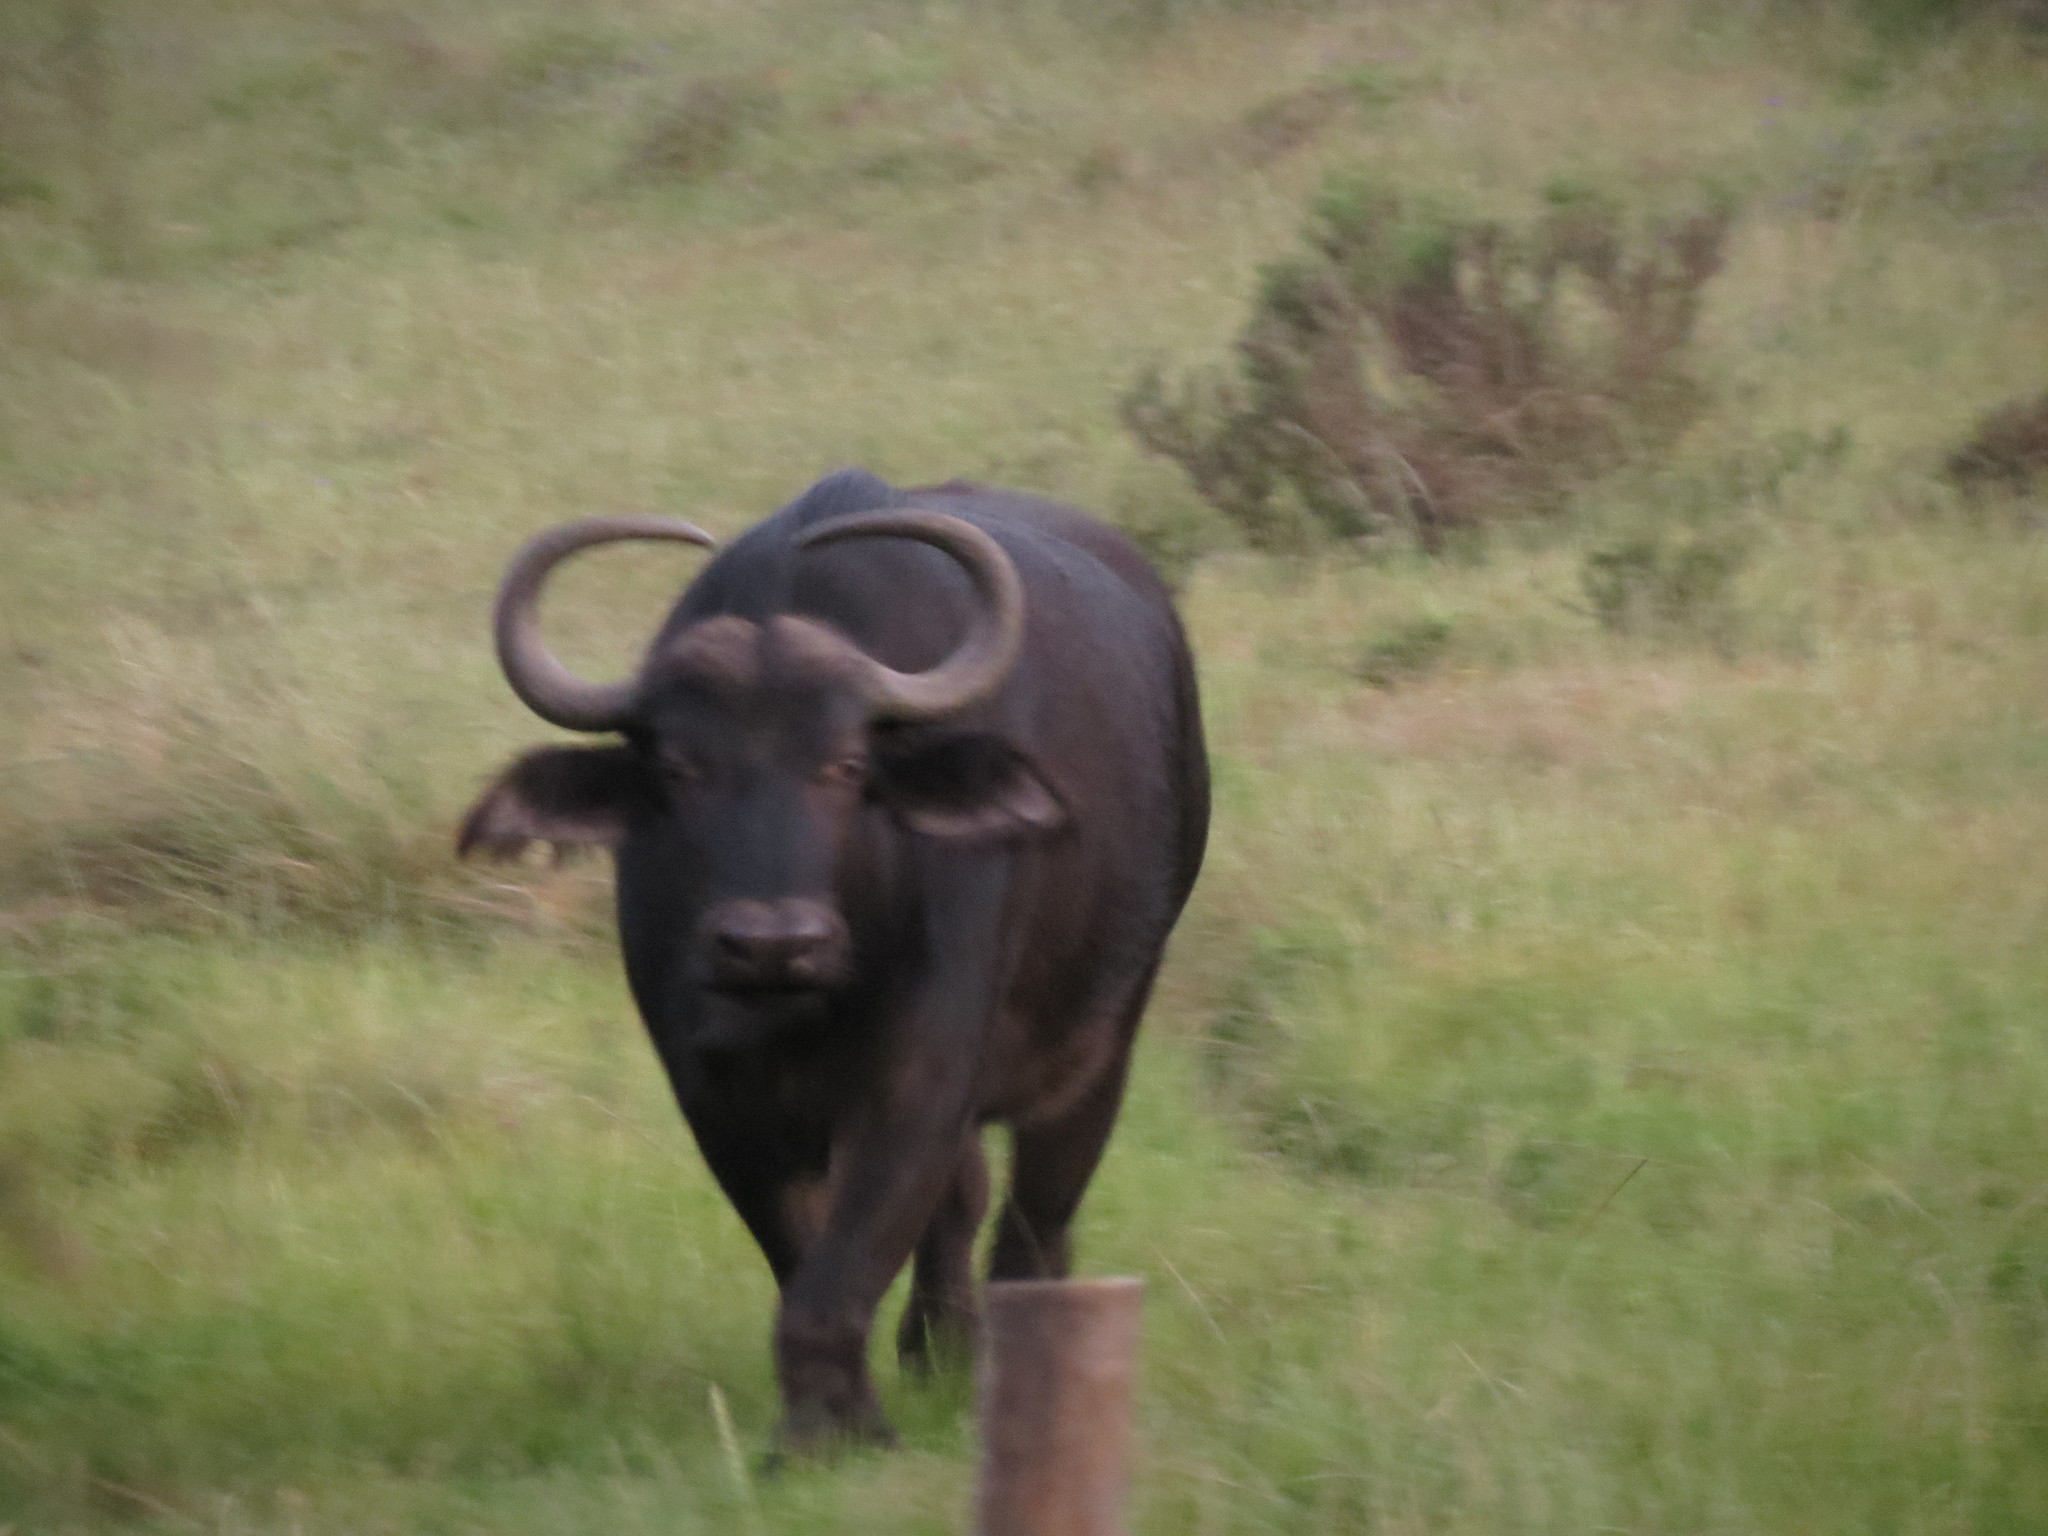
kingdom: Animalia
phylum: Chordata
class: Mammalia
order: Artiodactyla
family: Bovidae
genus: Syncerus
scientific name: Syncerus caffer
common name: African buffalo
